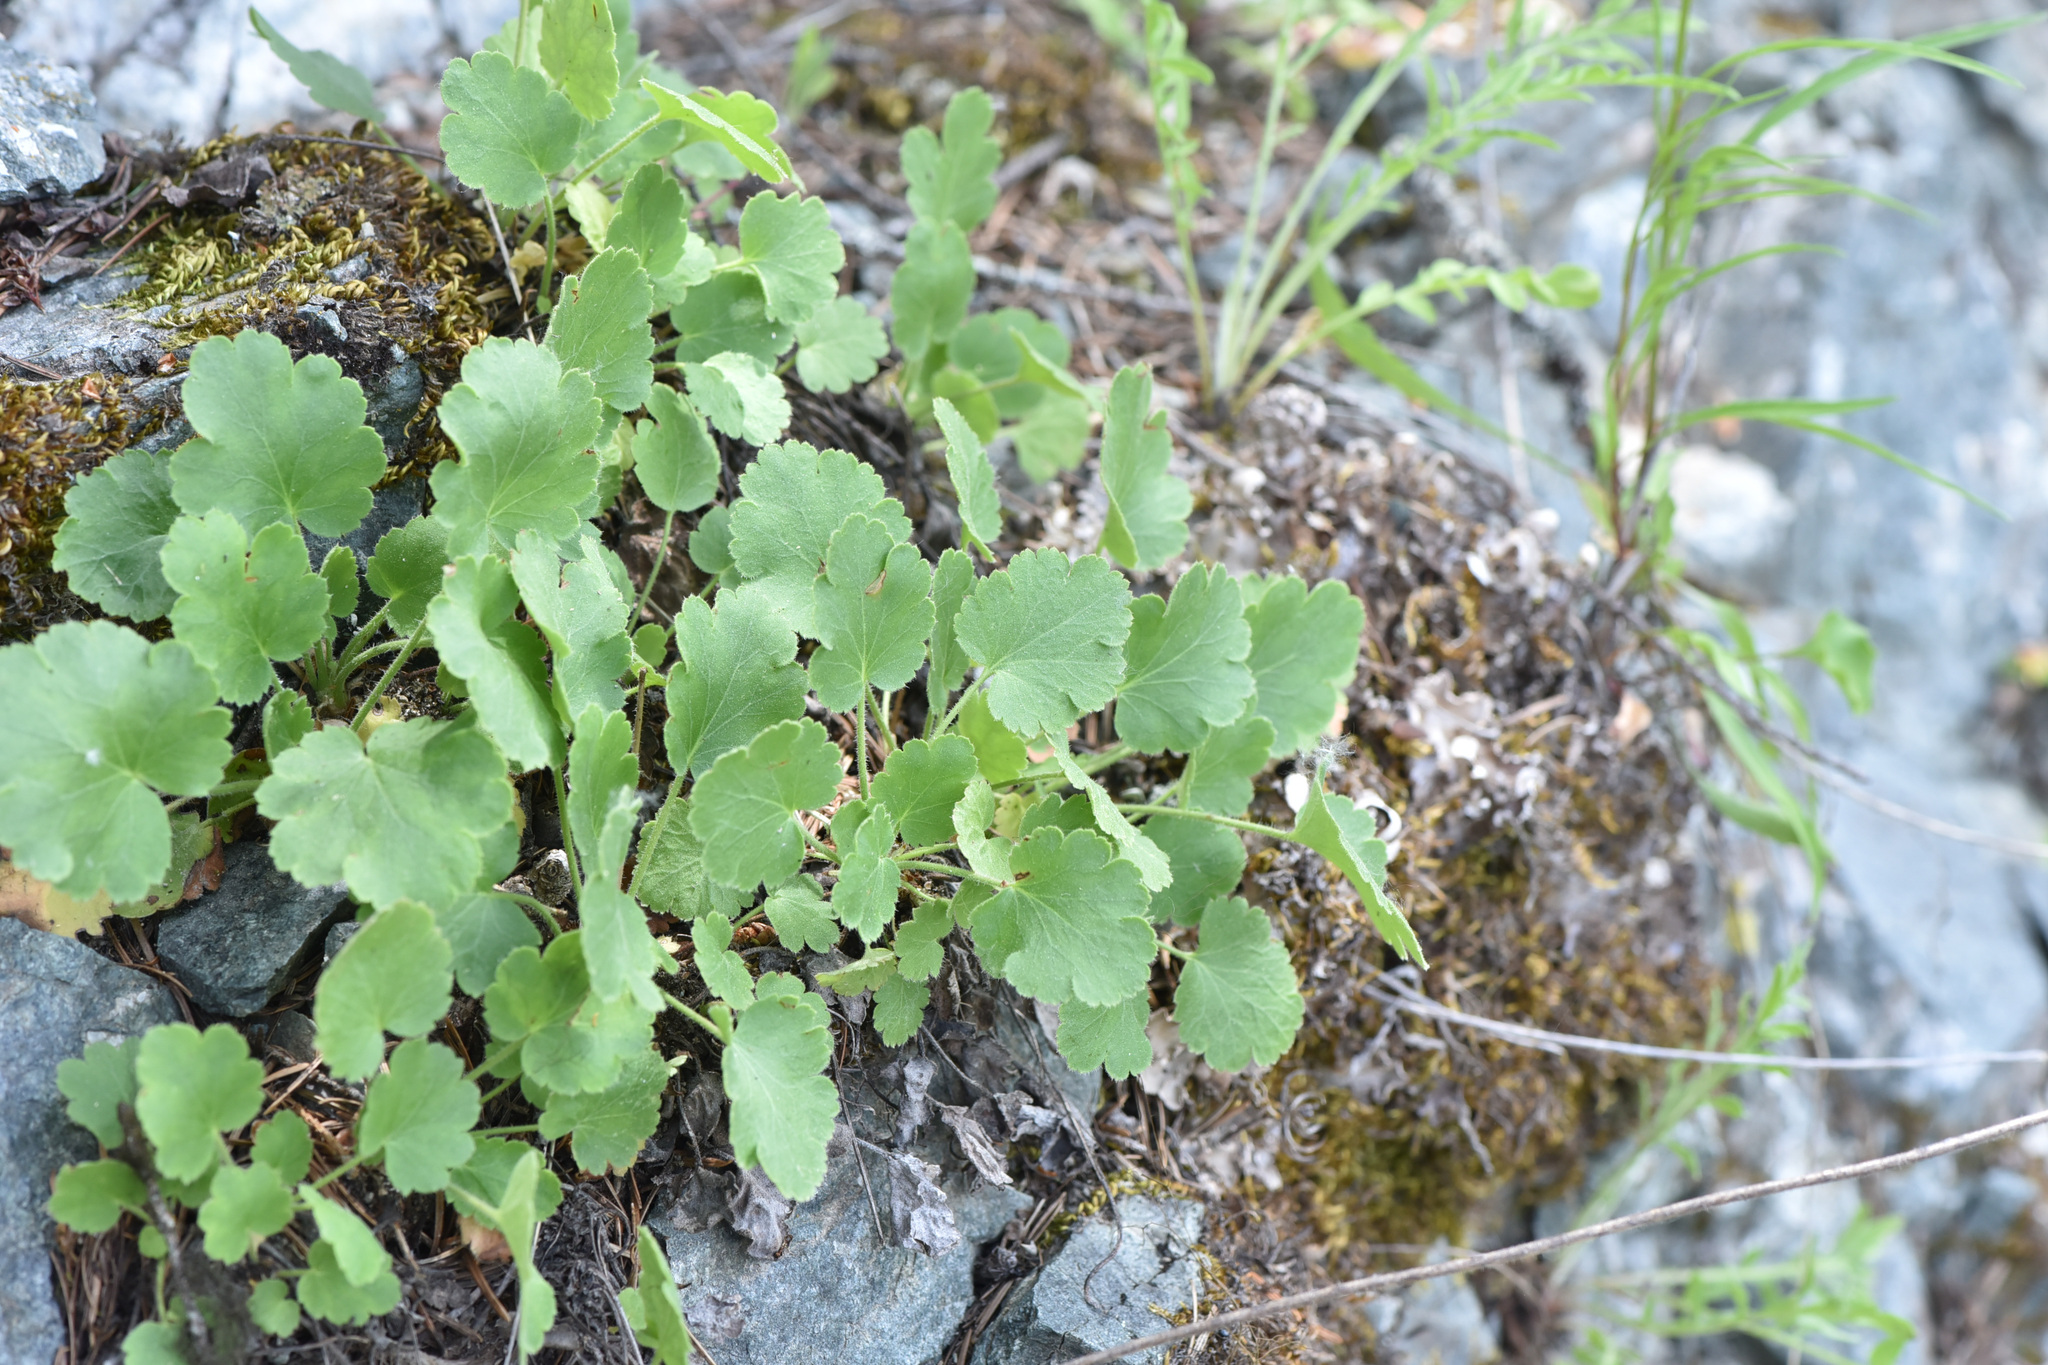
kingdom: Plantae
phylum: Tracheophyta
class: Magnoliopsida
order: Saxifragales
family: Saxifragaceae
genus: Heuchera
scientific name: Heuchera cylindrica
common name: Mat alumroot
